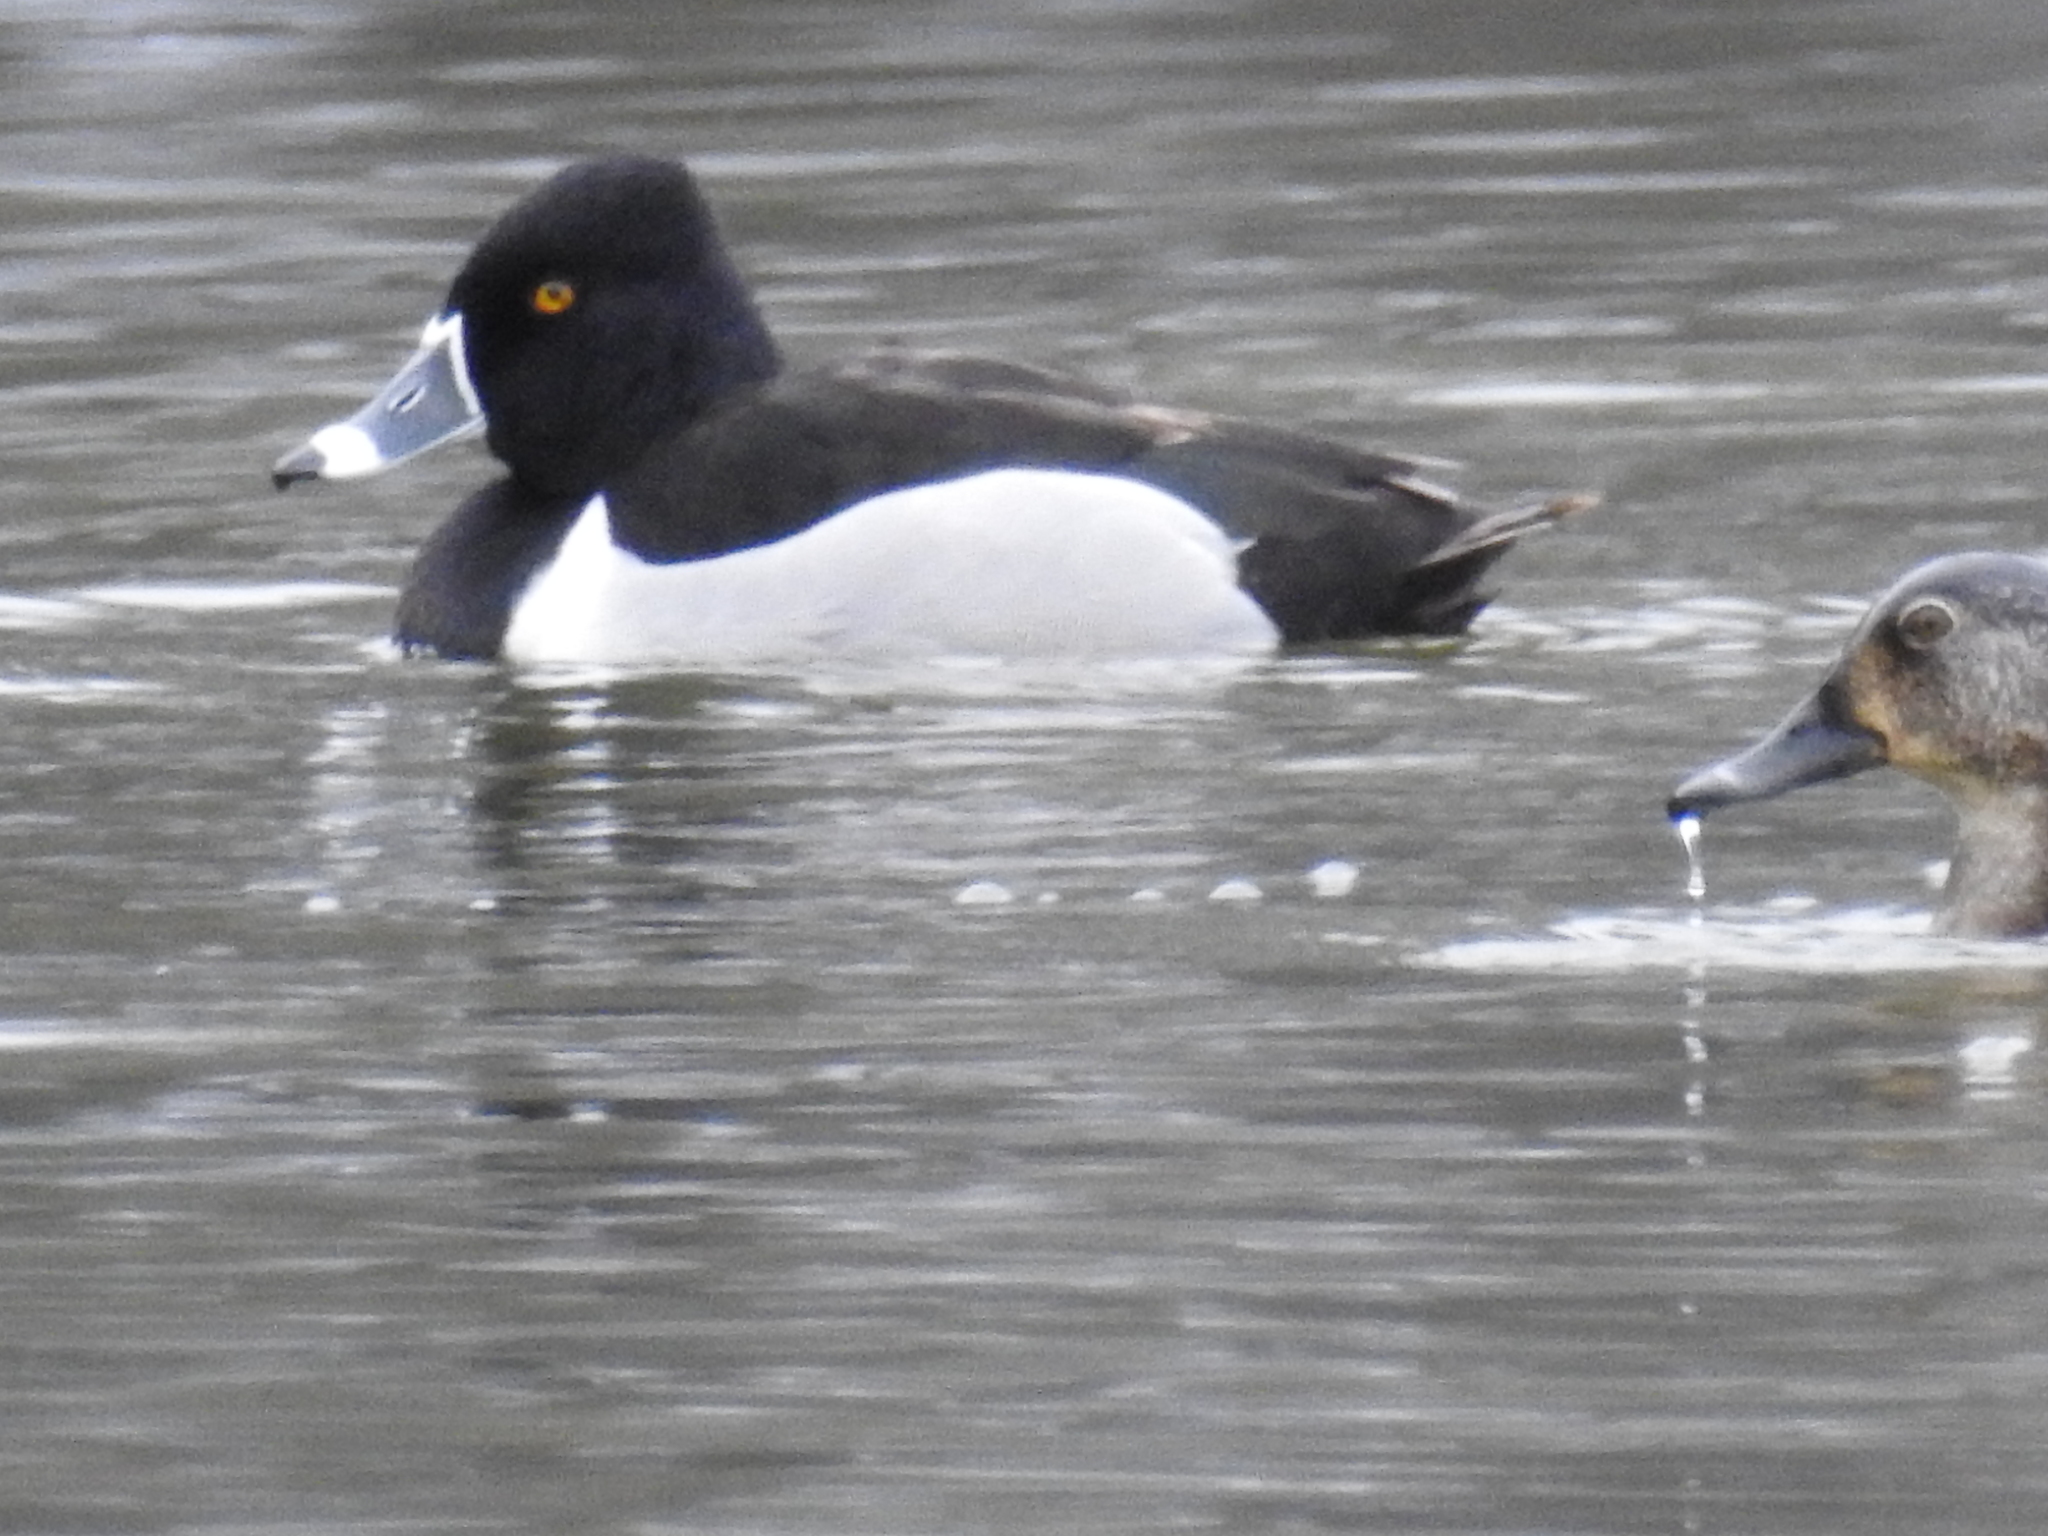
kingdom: Animalia
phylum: Chordata
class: Aves
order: Anseriformes
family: Anatidae
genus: Aythya
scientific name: Aythya collaris
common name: Ring-necked duck
